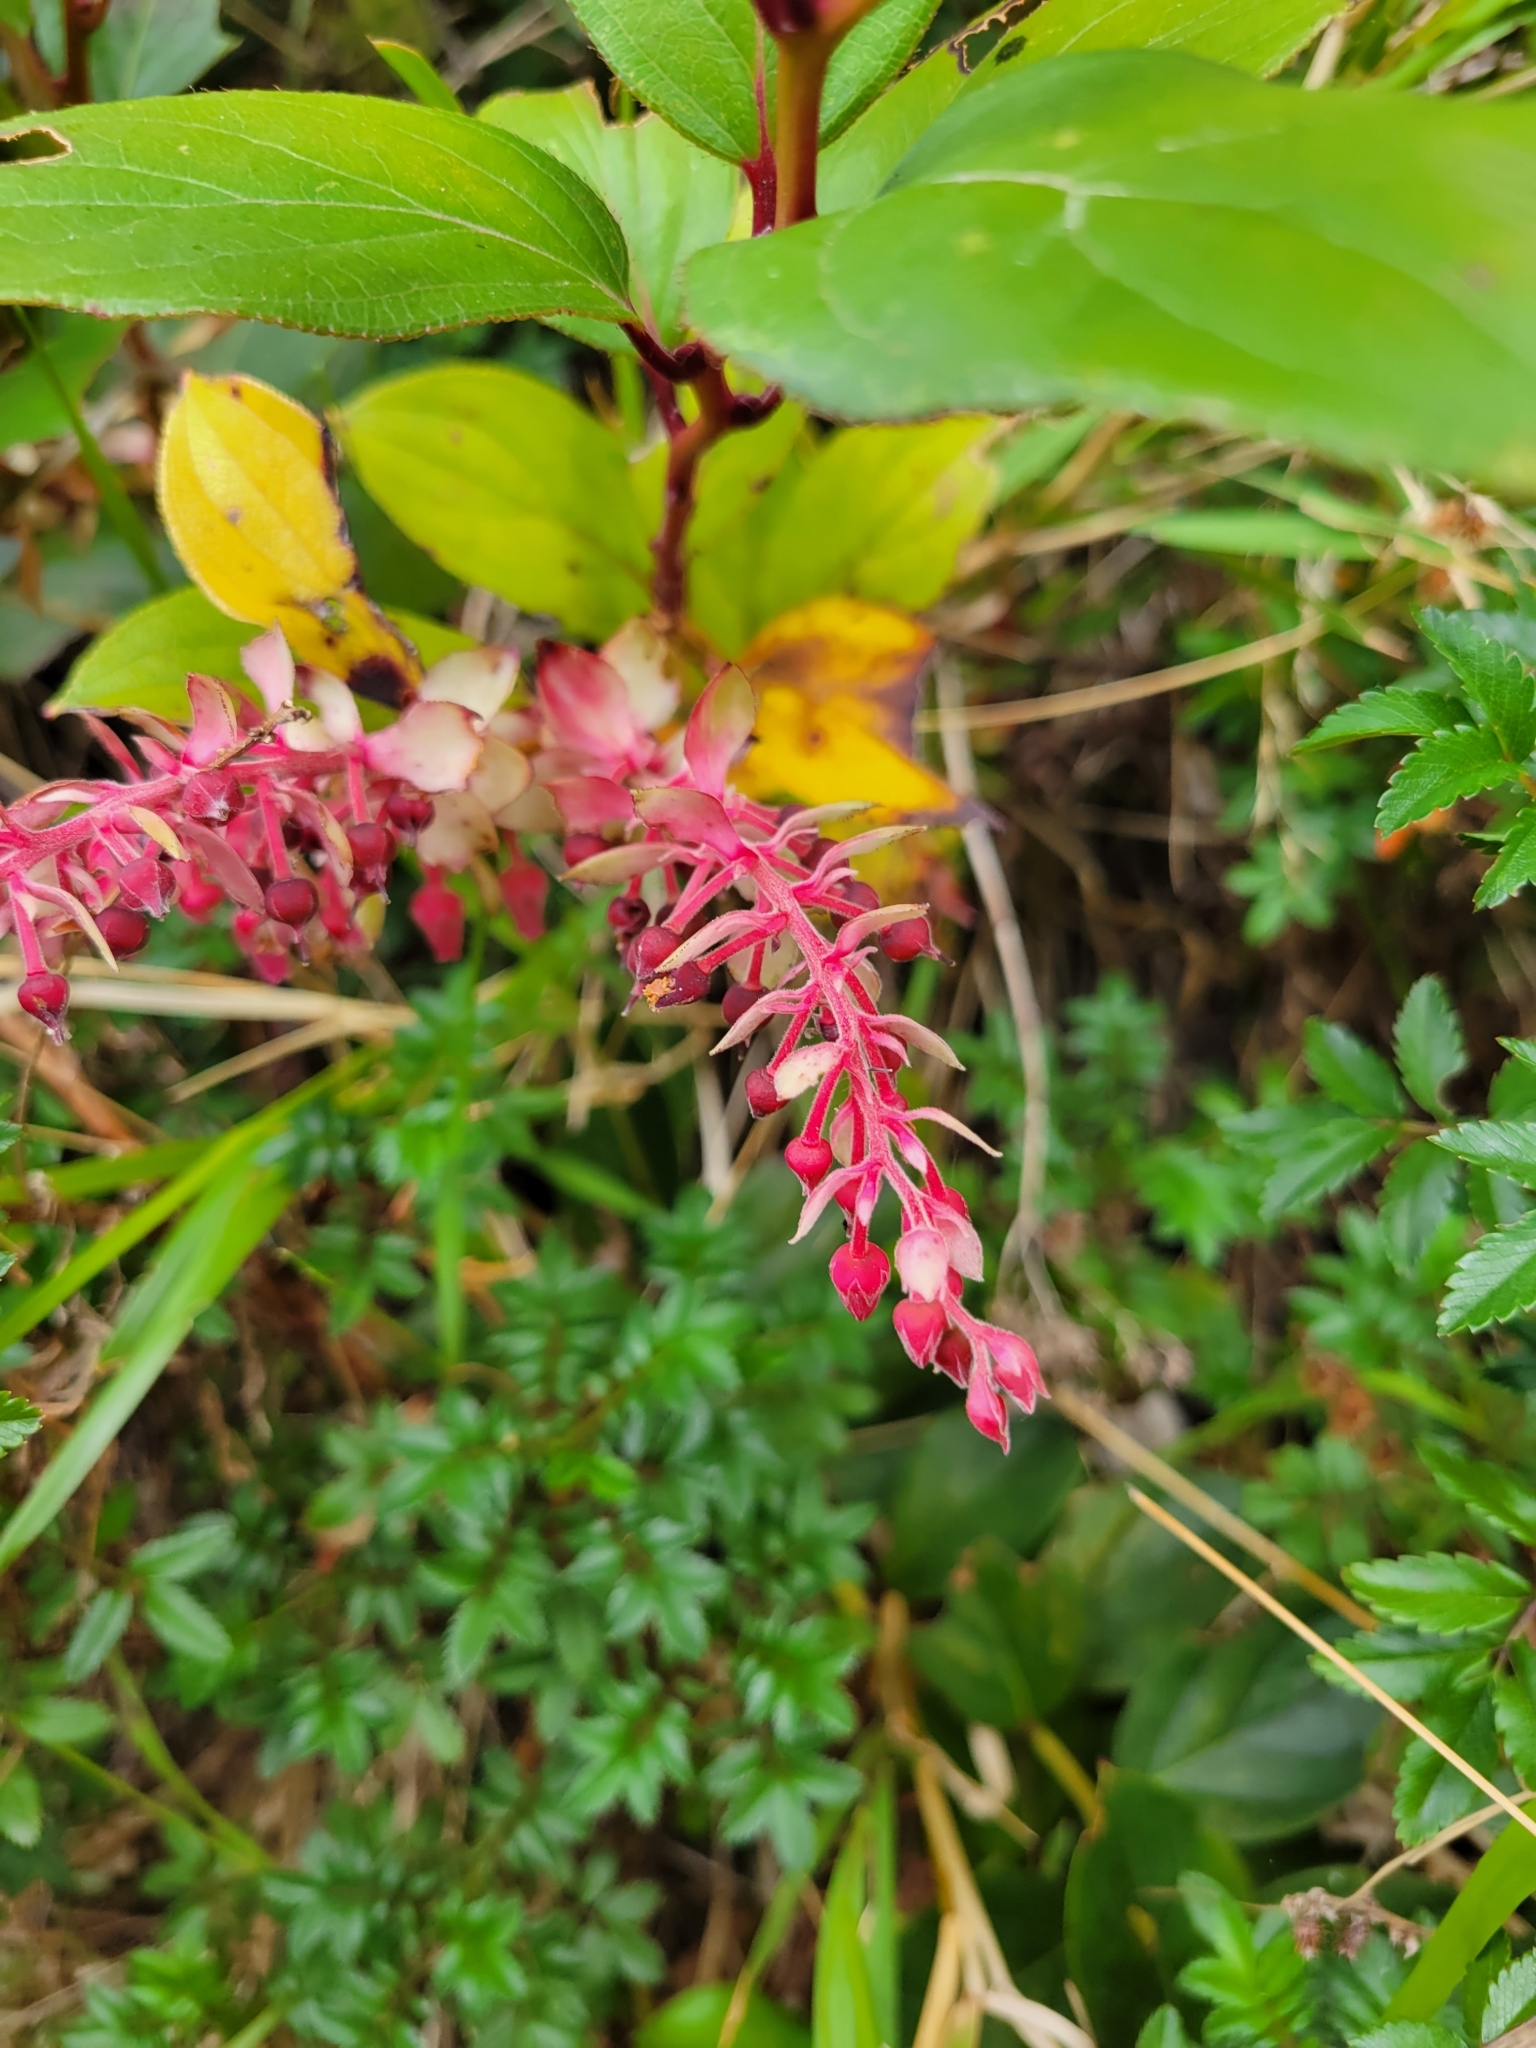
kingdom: Plantae
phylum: Tracheophyta
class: Magnoliopsida
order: Ericales
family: Ericaceae
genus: Gaultheria
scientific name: Gaultheria erecta
